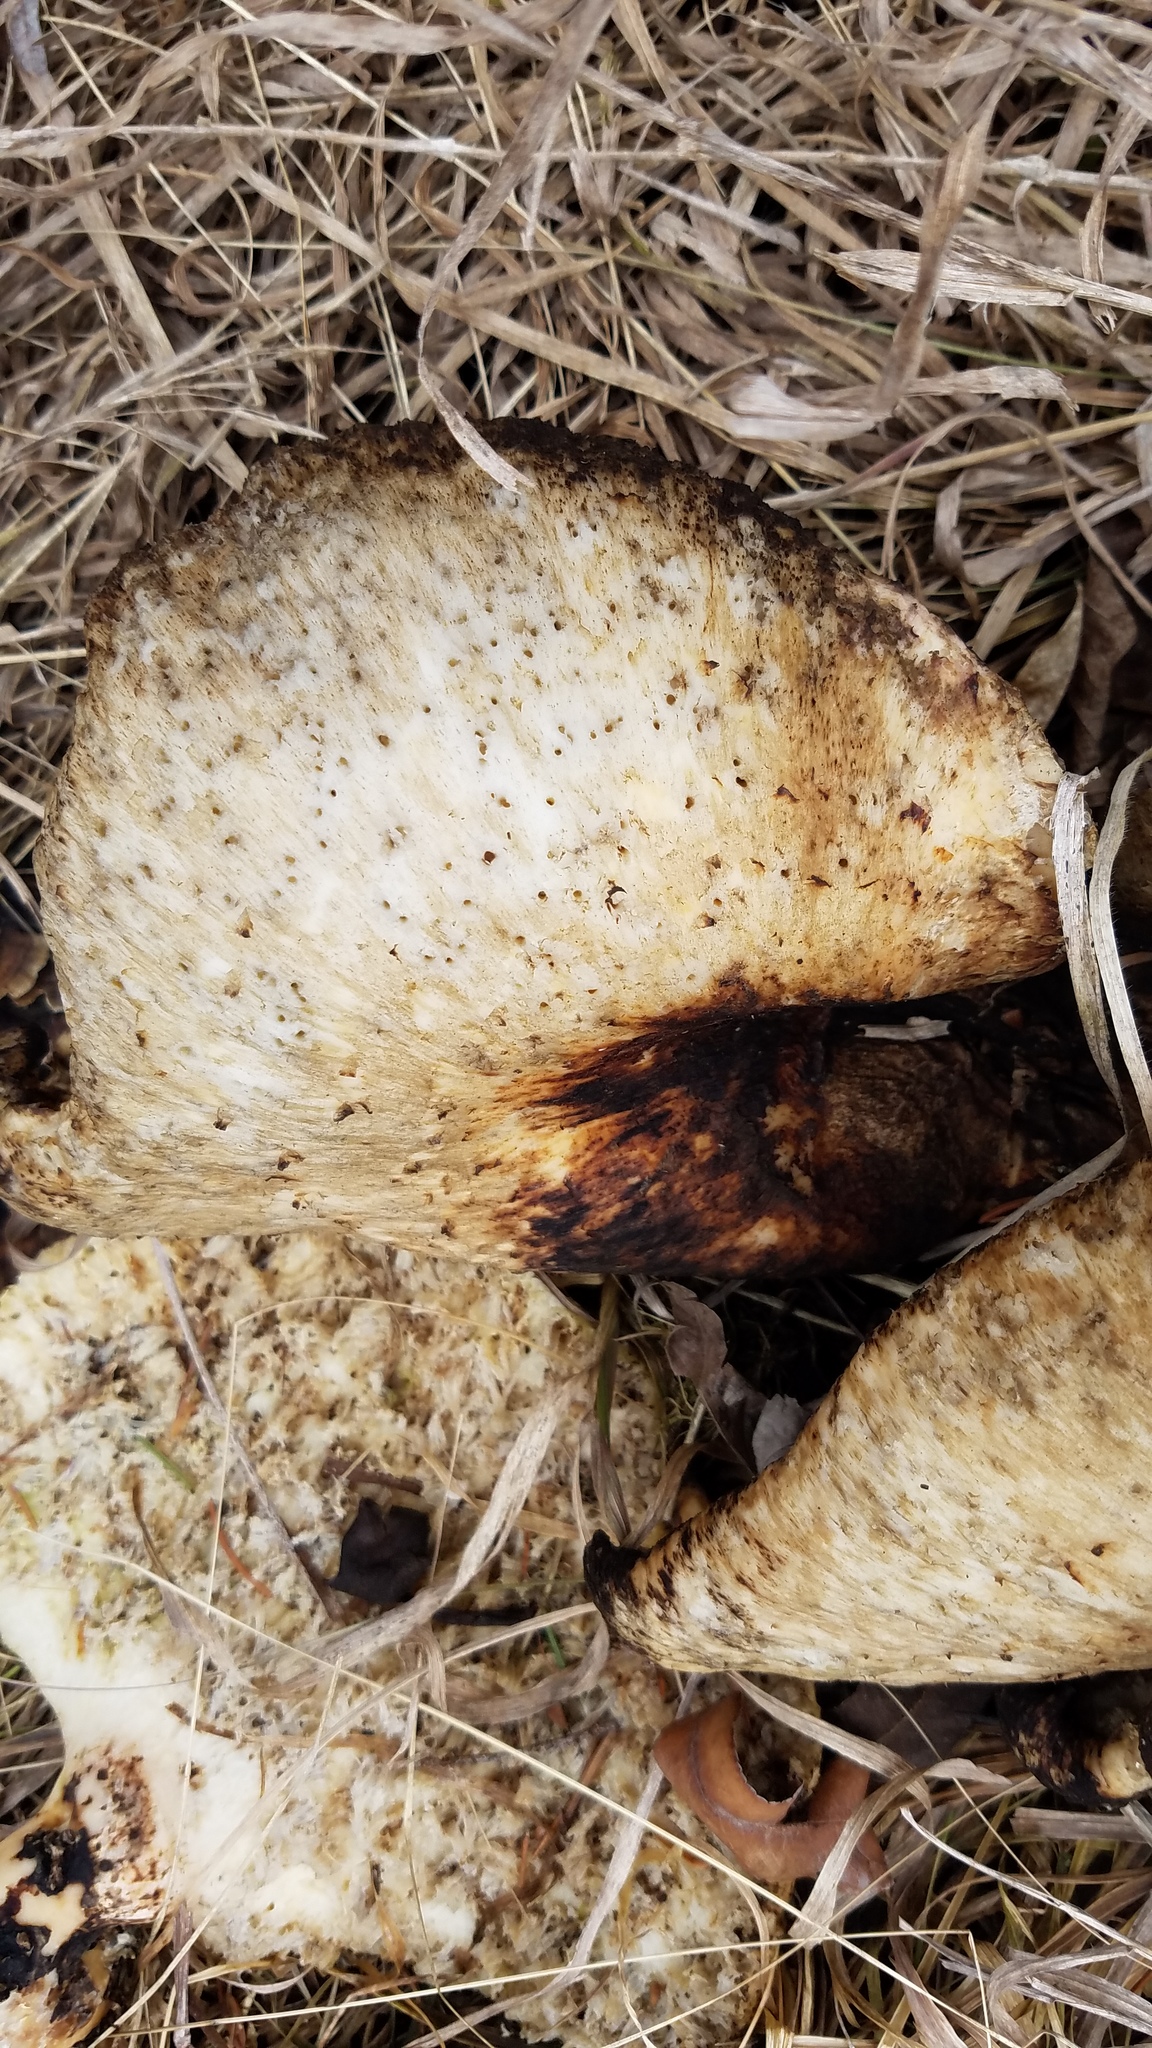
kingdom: Fungi
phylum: Basidiomycota
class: Agaricomycetes
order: Polyporales
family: Polyporaceae
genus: Cerioporus
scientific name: Cerioporus squamosus
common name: Dryad's saddle
